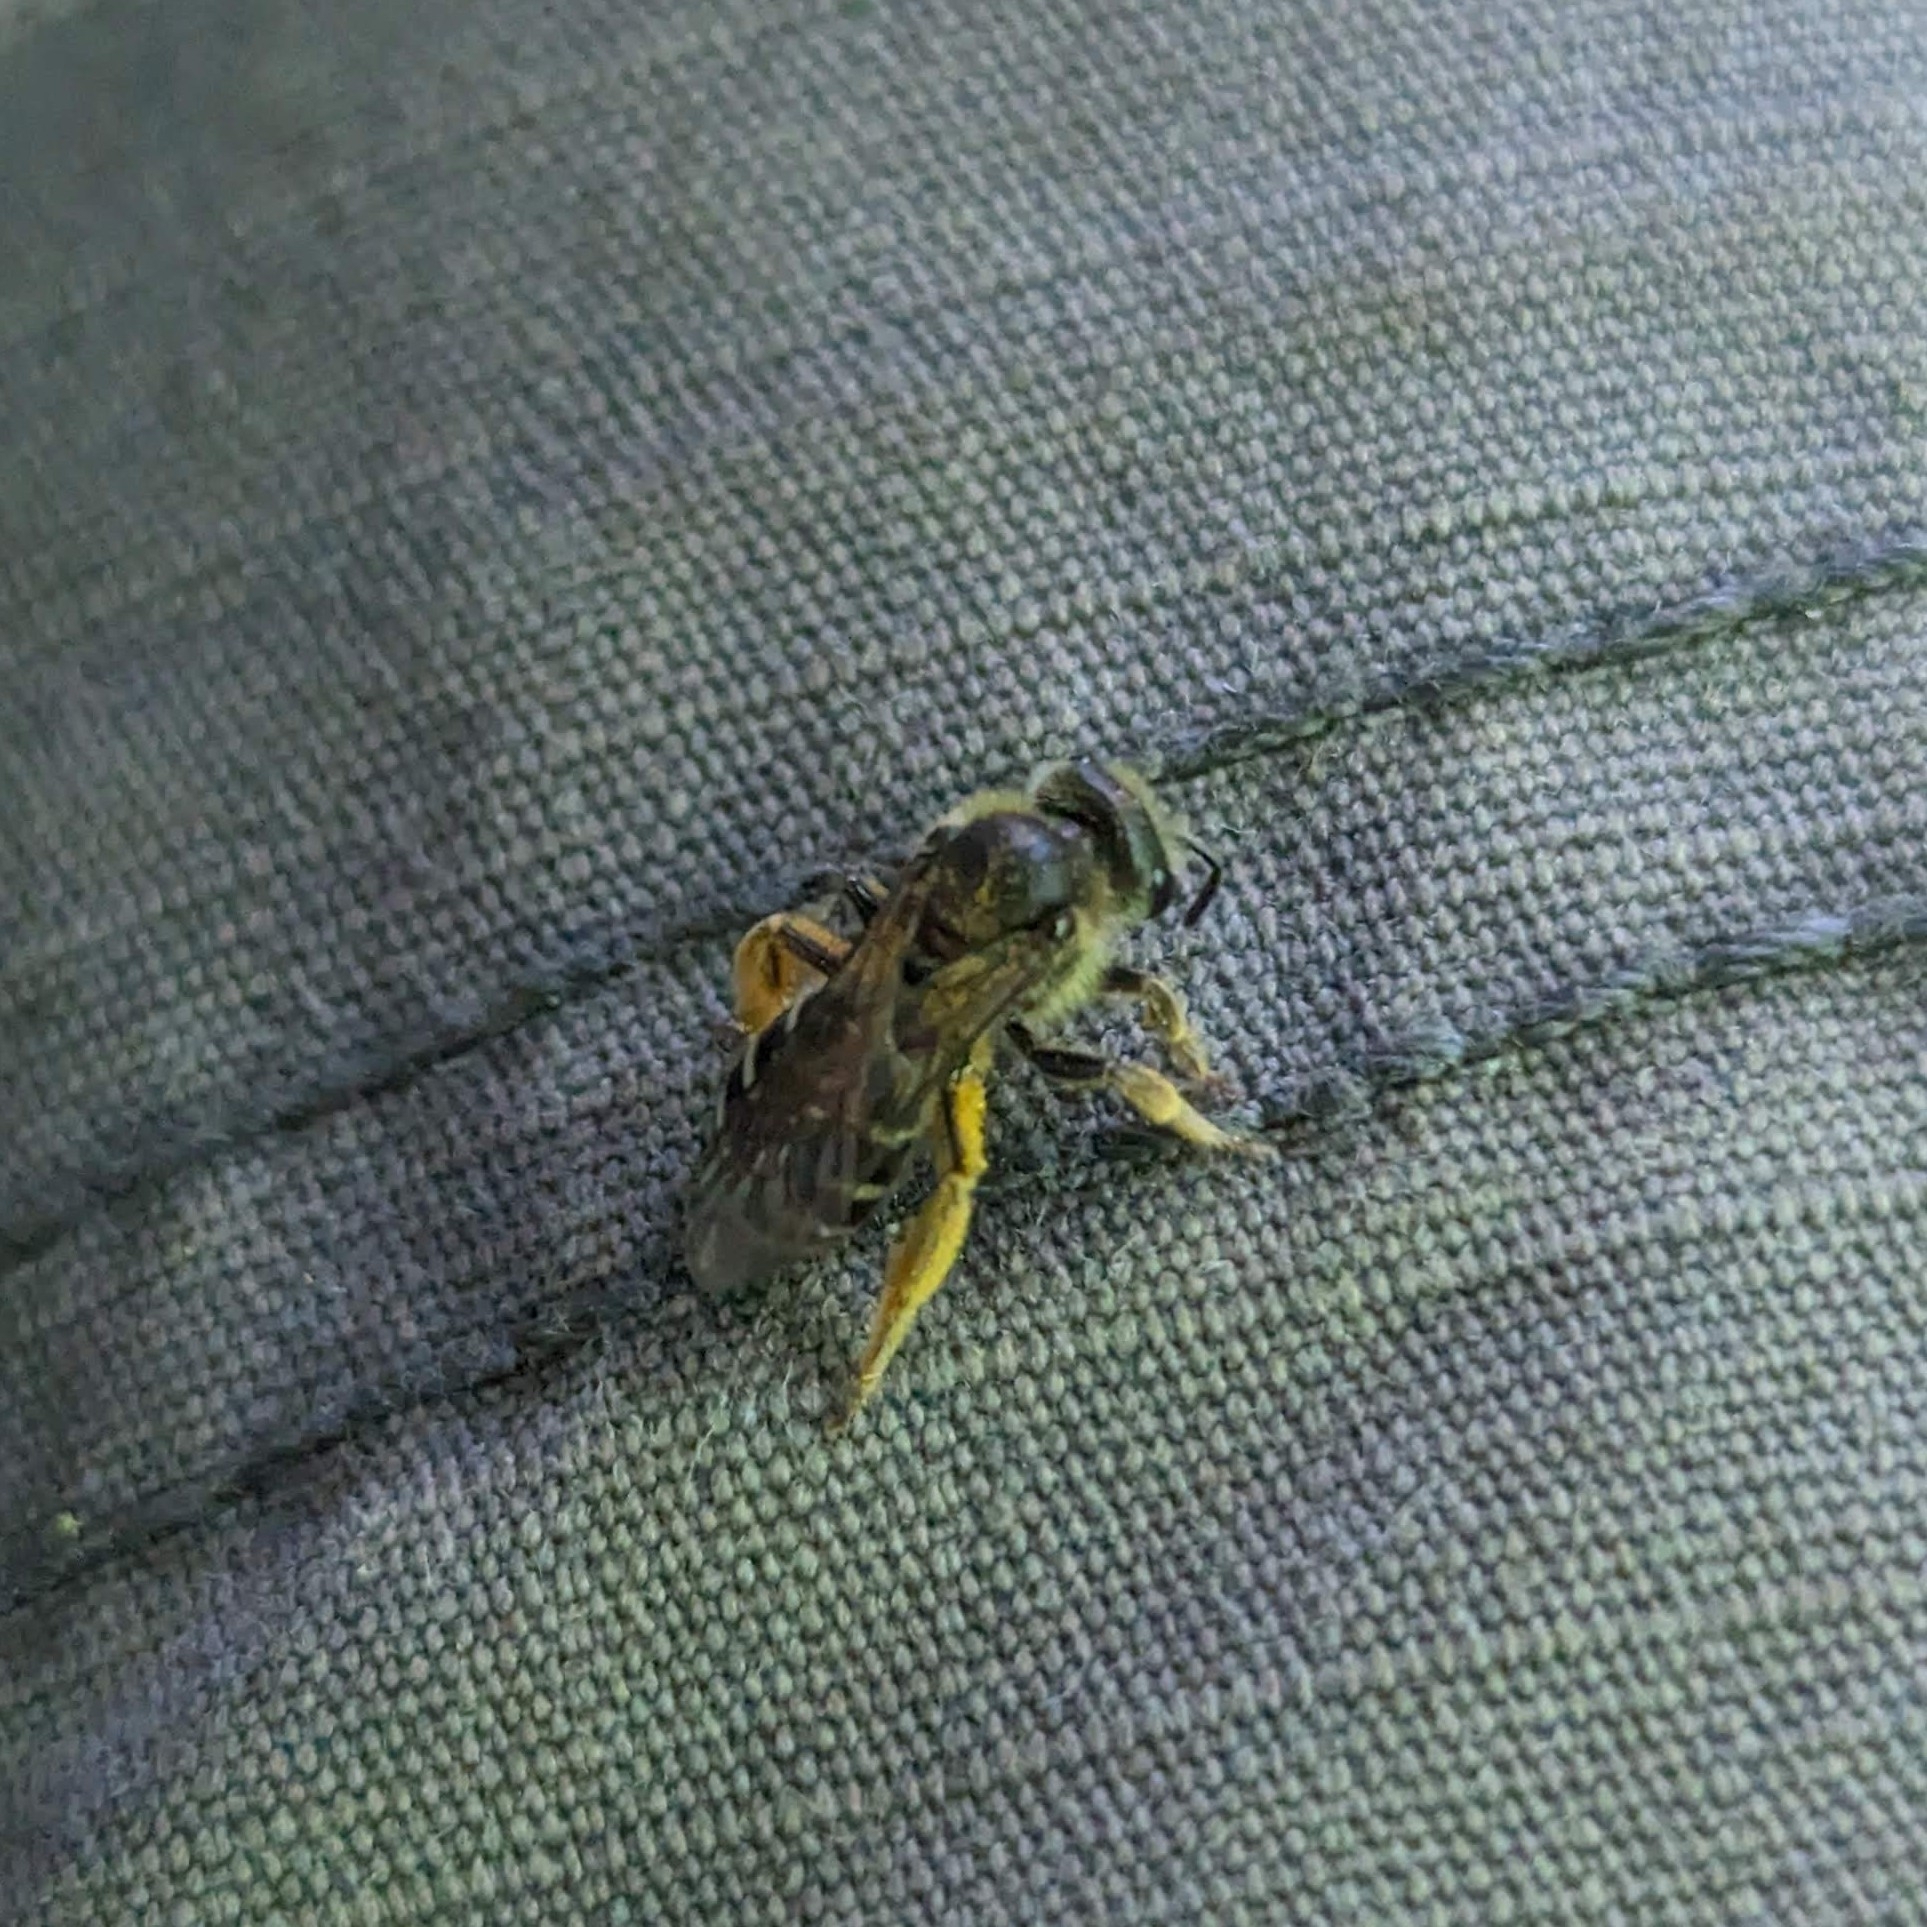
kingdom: Animalia
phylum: Arthropoda
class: Insecta
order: Hymenoptera
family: Halictidae
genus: Halictus
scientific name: Halictus rubicundus
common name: Orange-legged furrow bee
